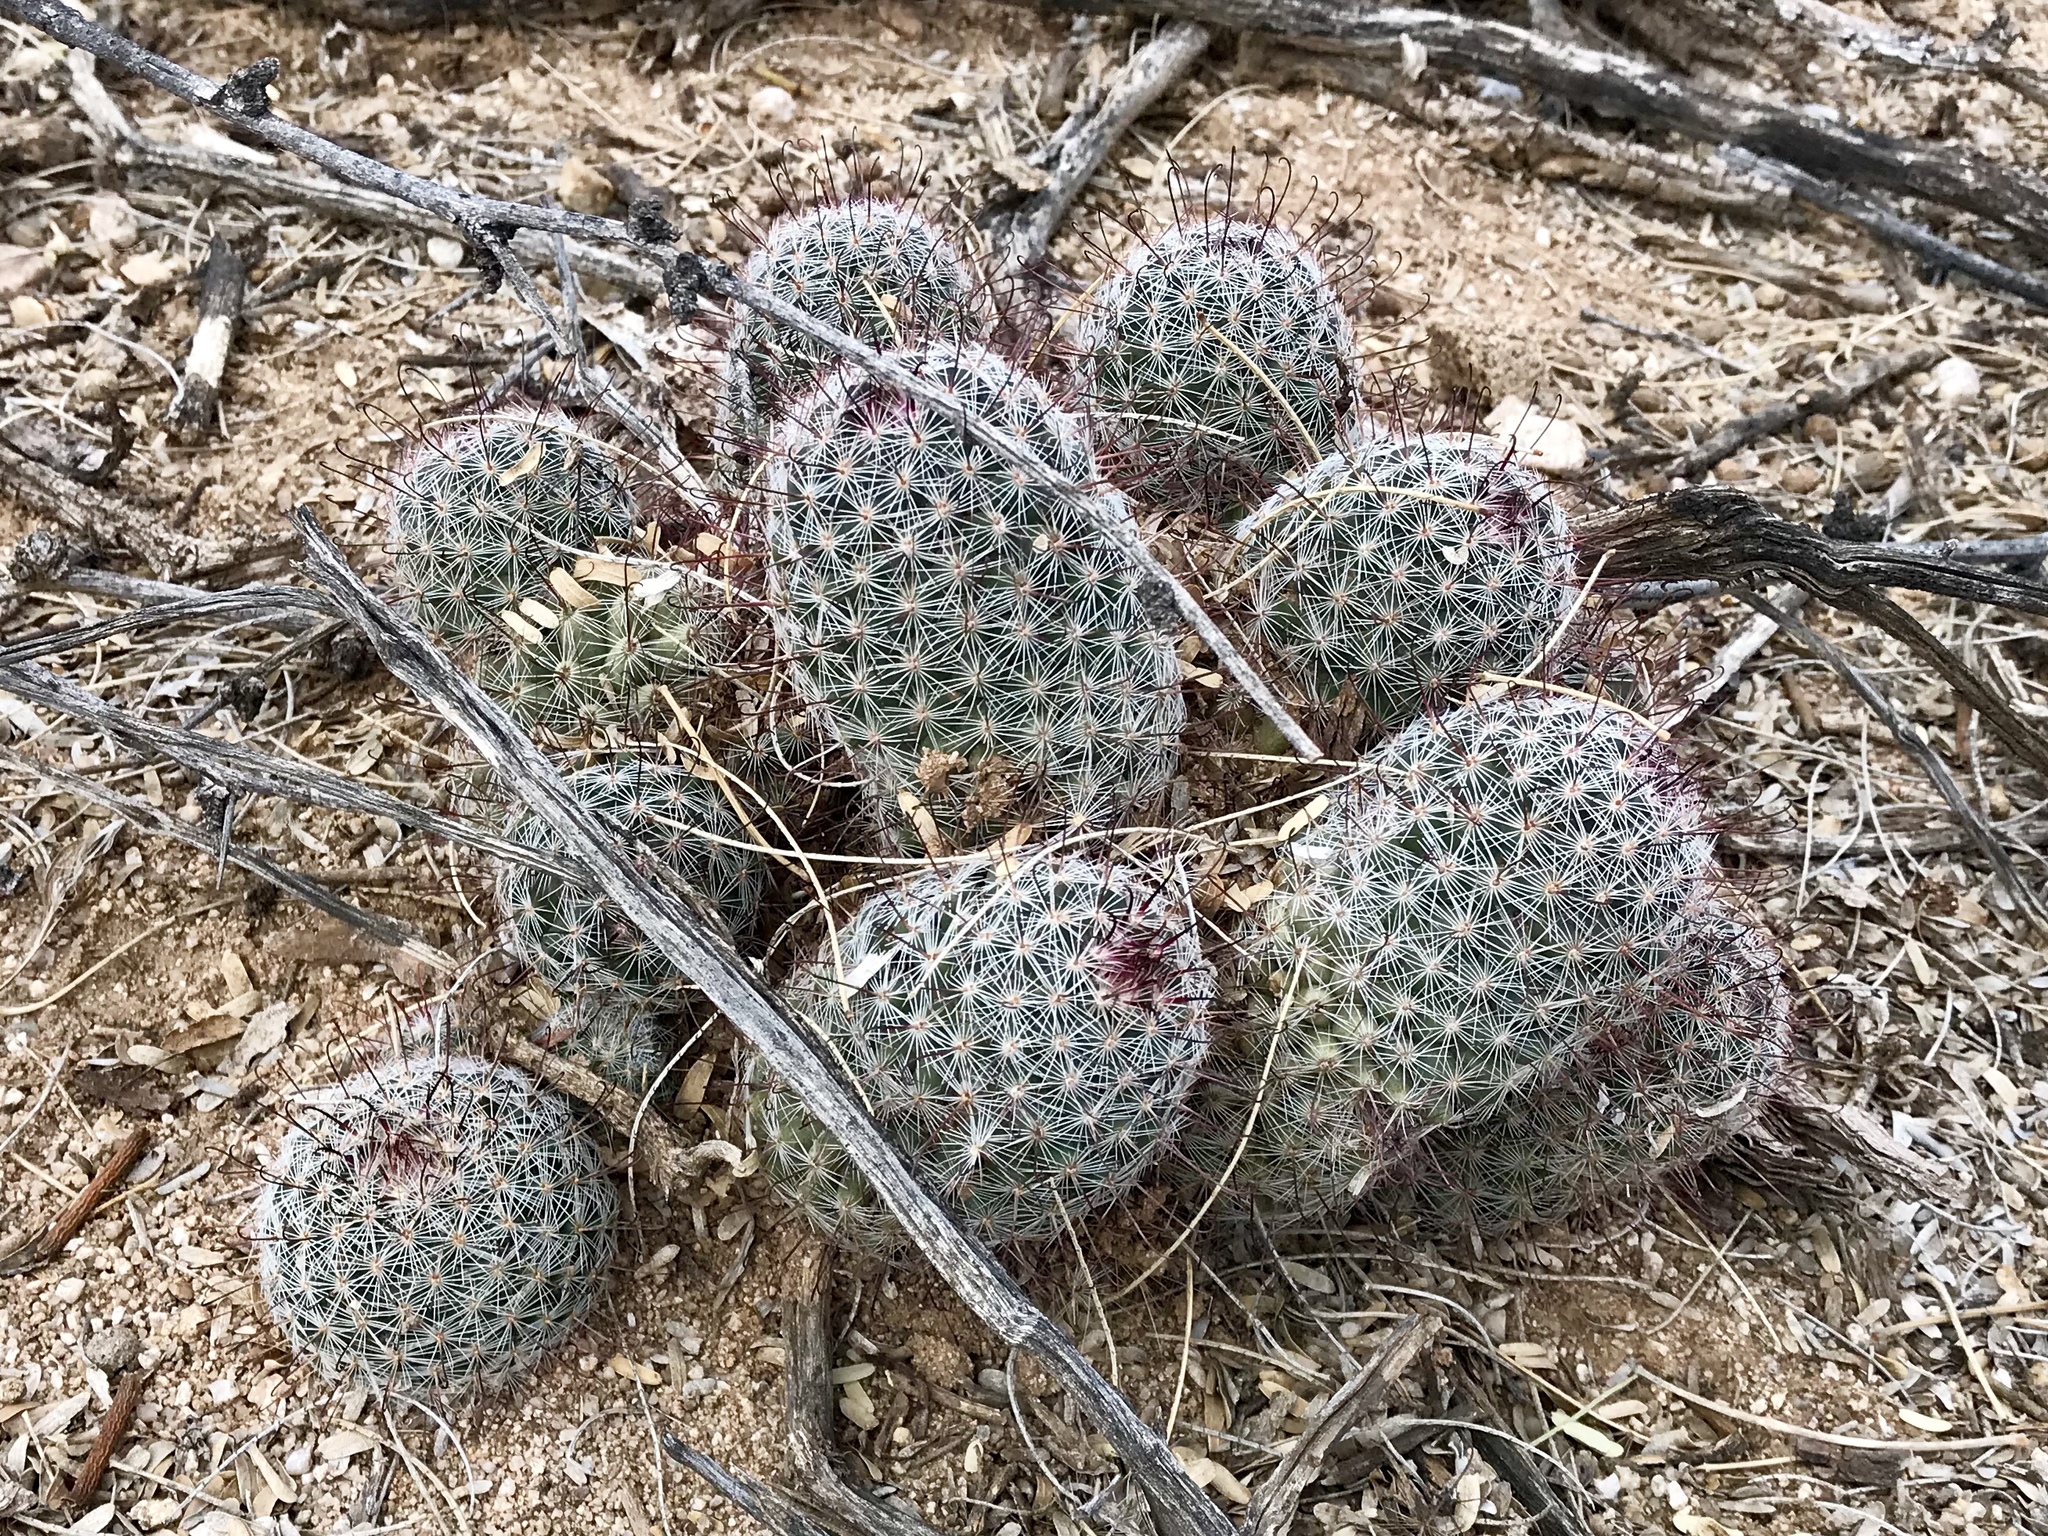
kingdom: Plantae
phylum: Tracheophyta
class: Magnoliopsida
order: Caryophyllales
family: Cactaceae
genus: Cochemiea
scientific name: Cochemiea grahamii
